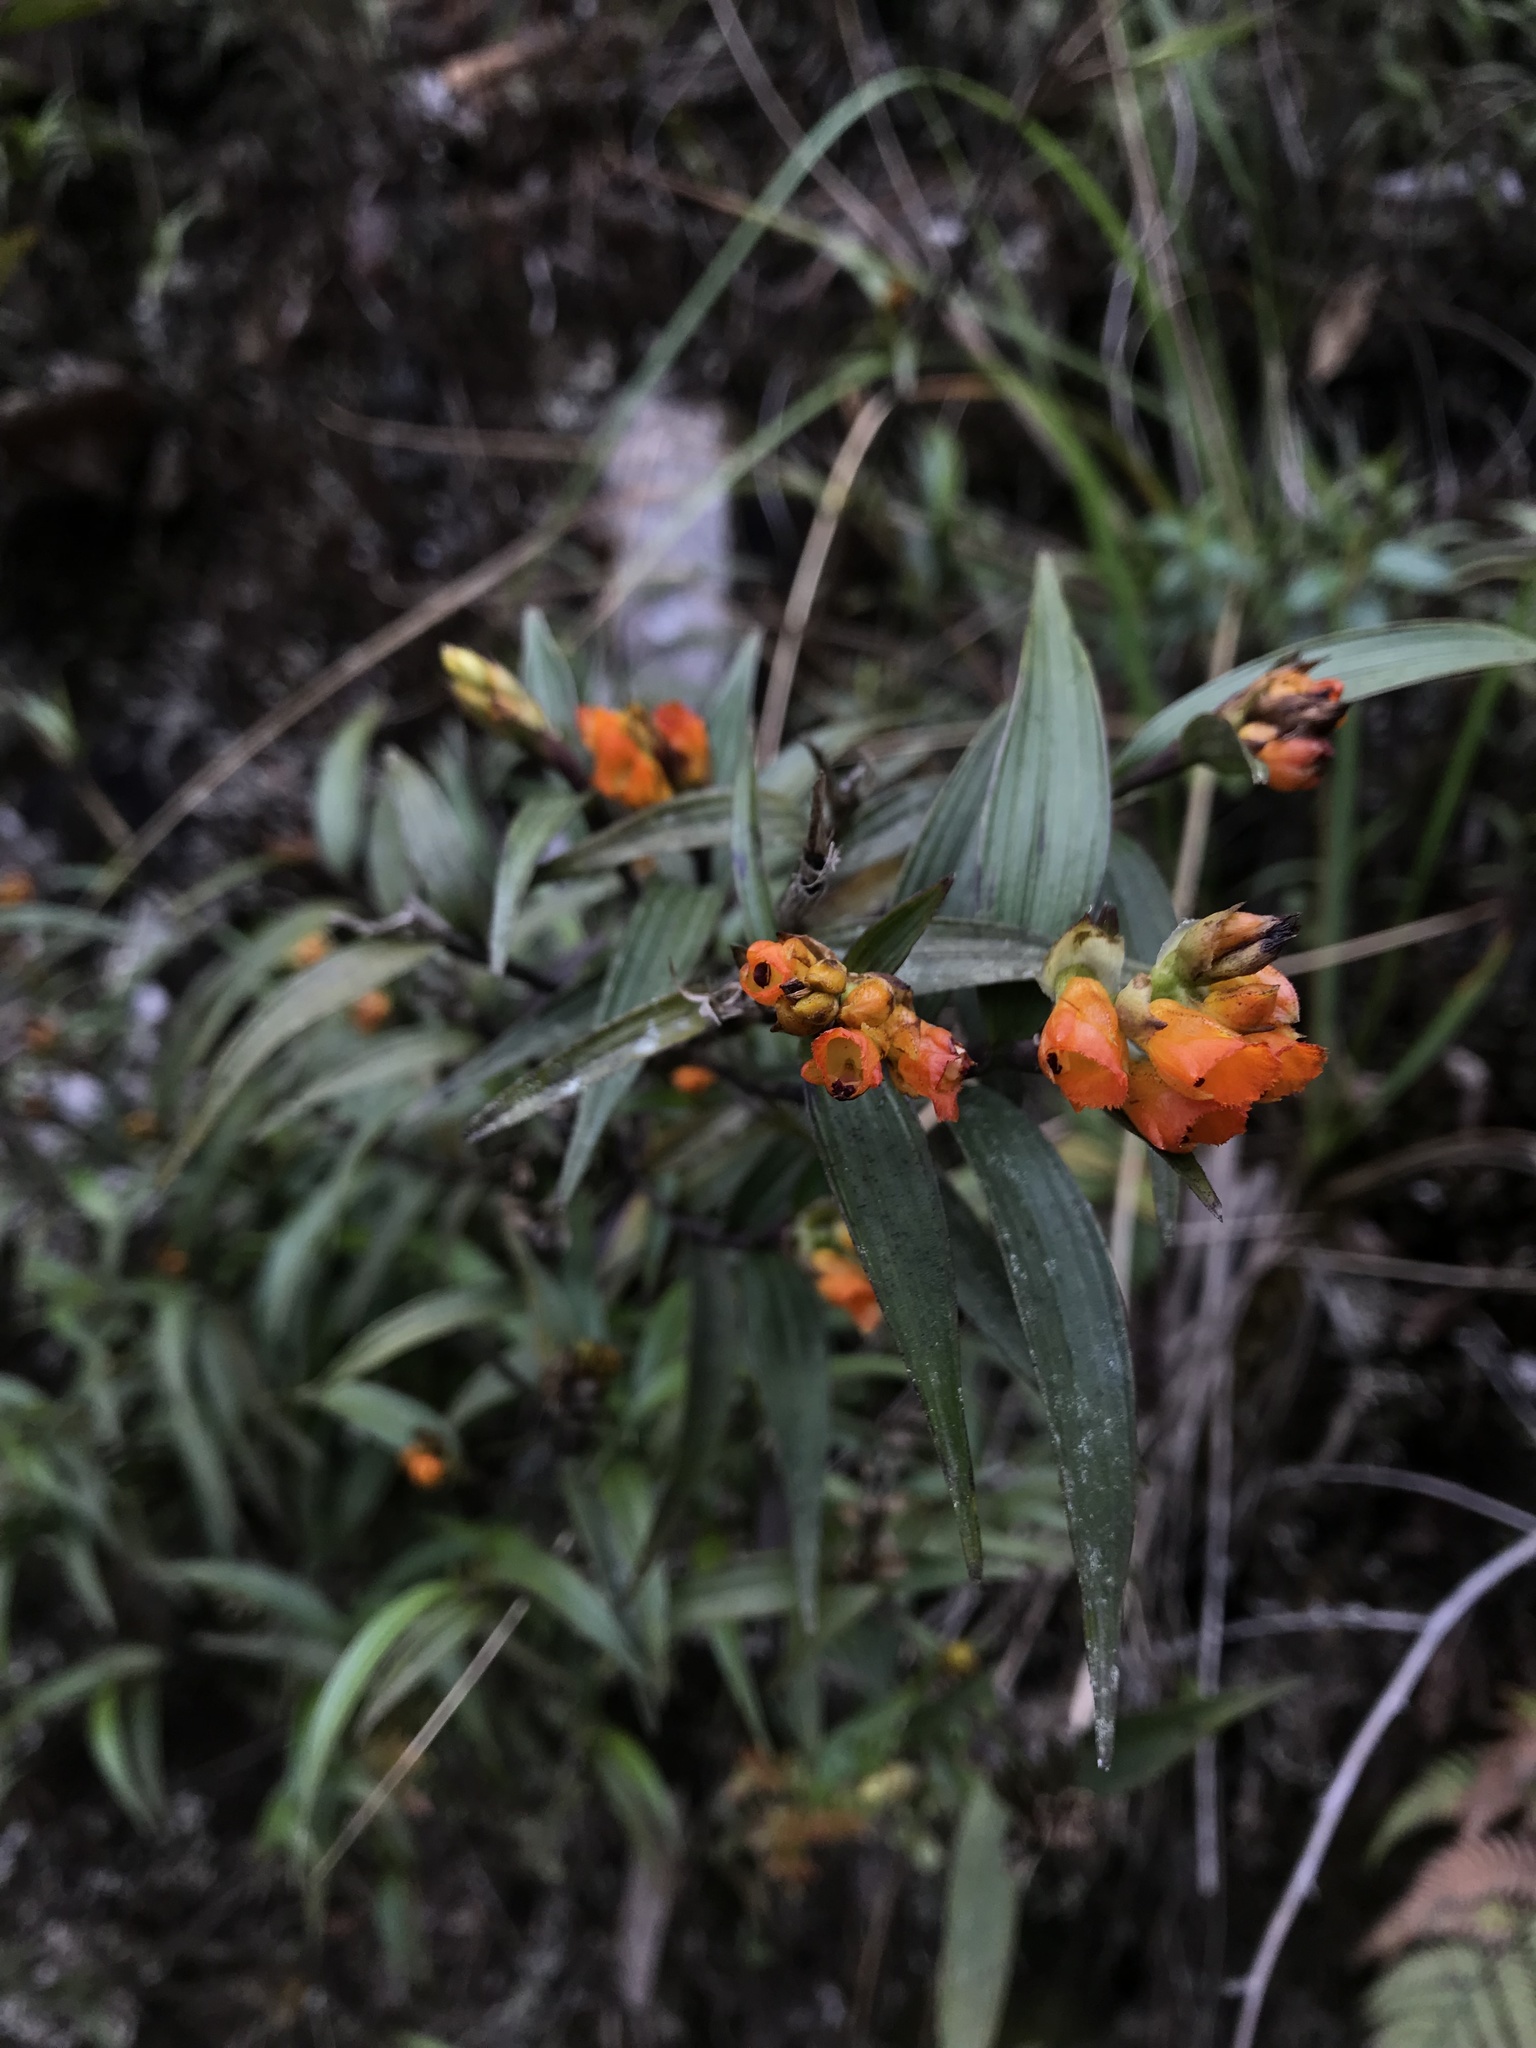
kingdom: Plantae
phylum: Tracheophyta
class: Liliopsida
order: Asparagales
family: Orchidaceae
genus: Elleanthus
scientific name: Elleanthus aurantiacus
